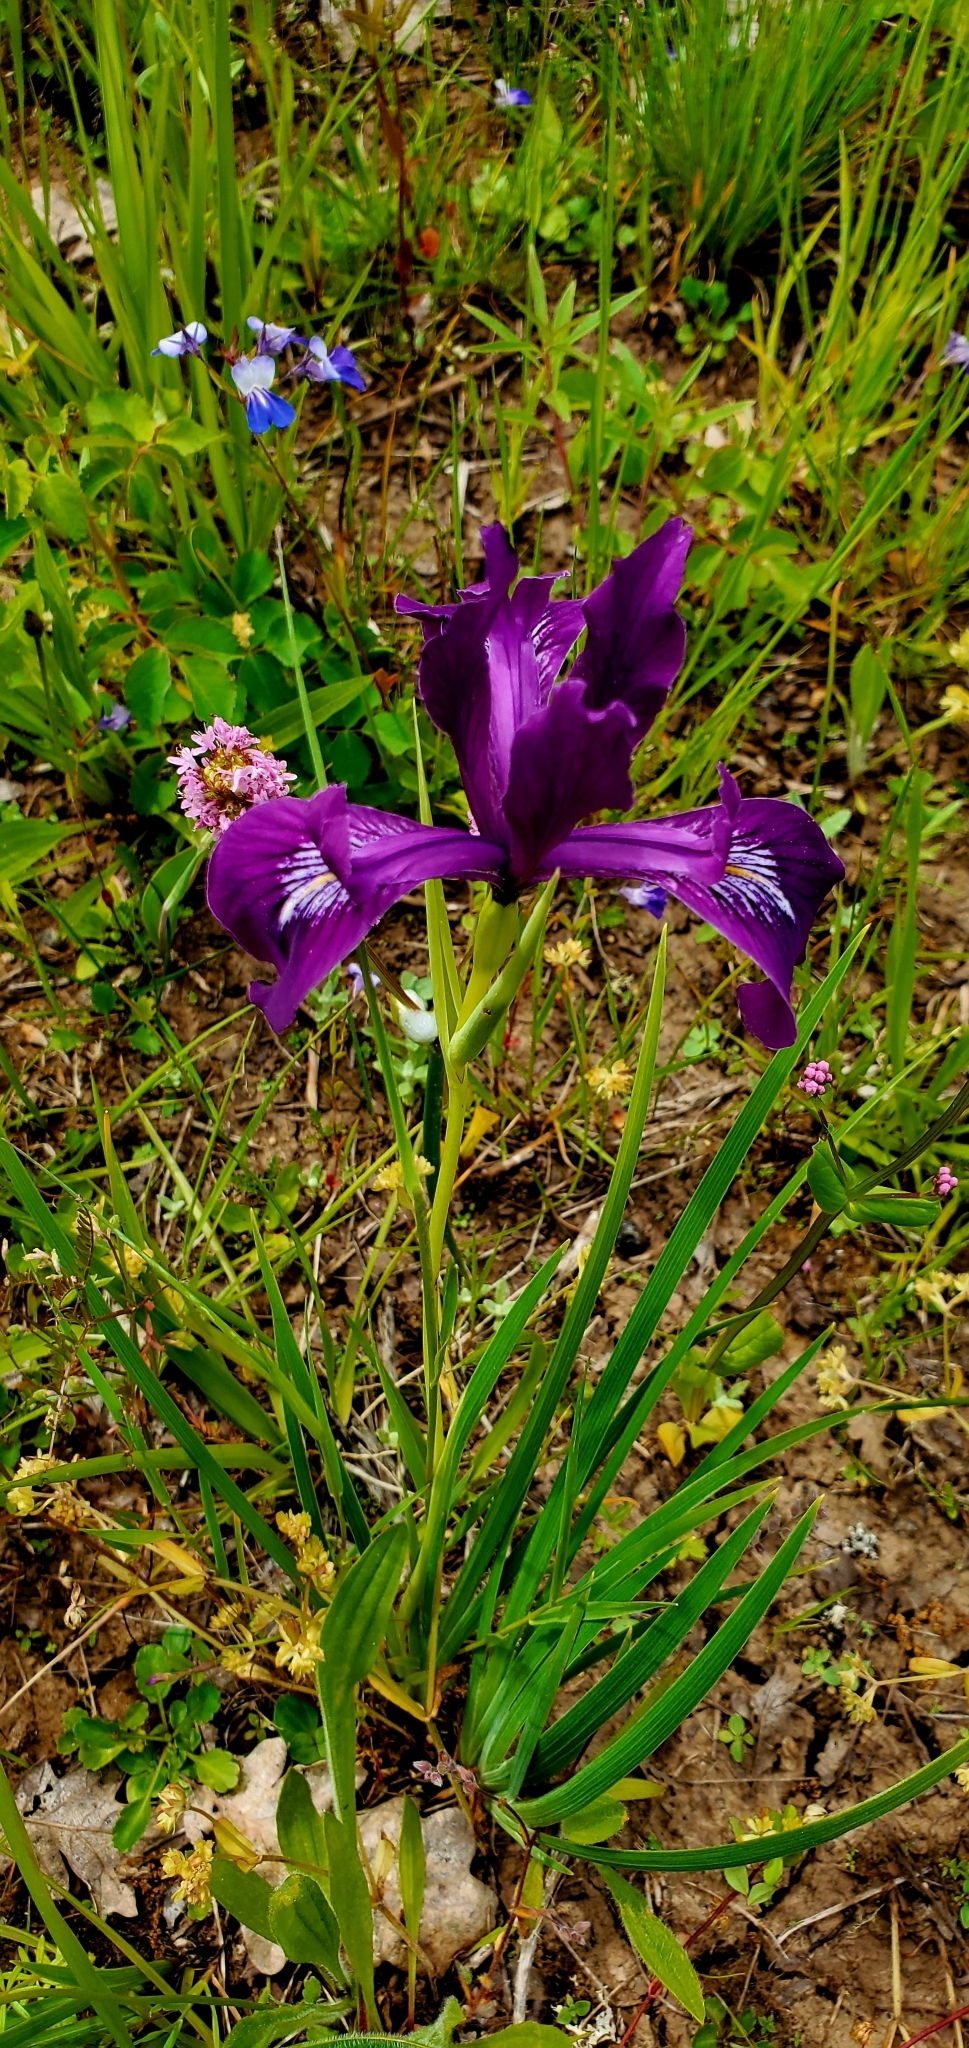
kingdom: Plantae
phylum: Tracheophyta
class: Liliopsida
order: Asparagales
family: Iridaceae
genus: Iris
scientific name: Iris tenax
